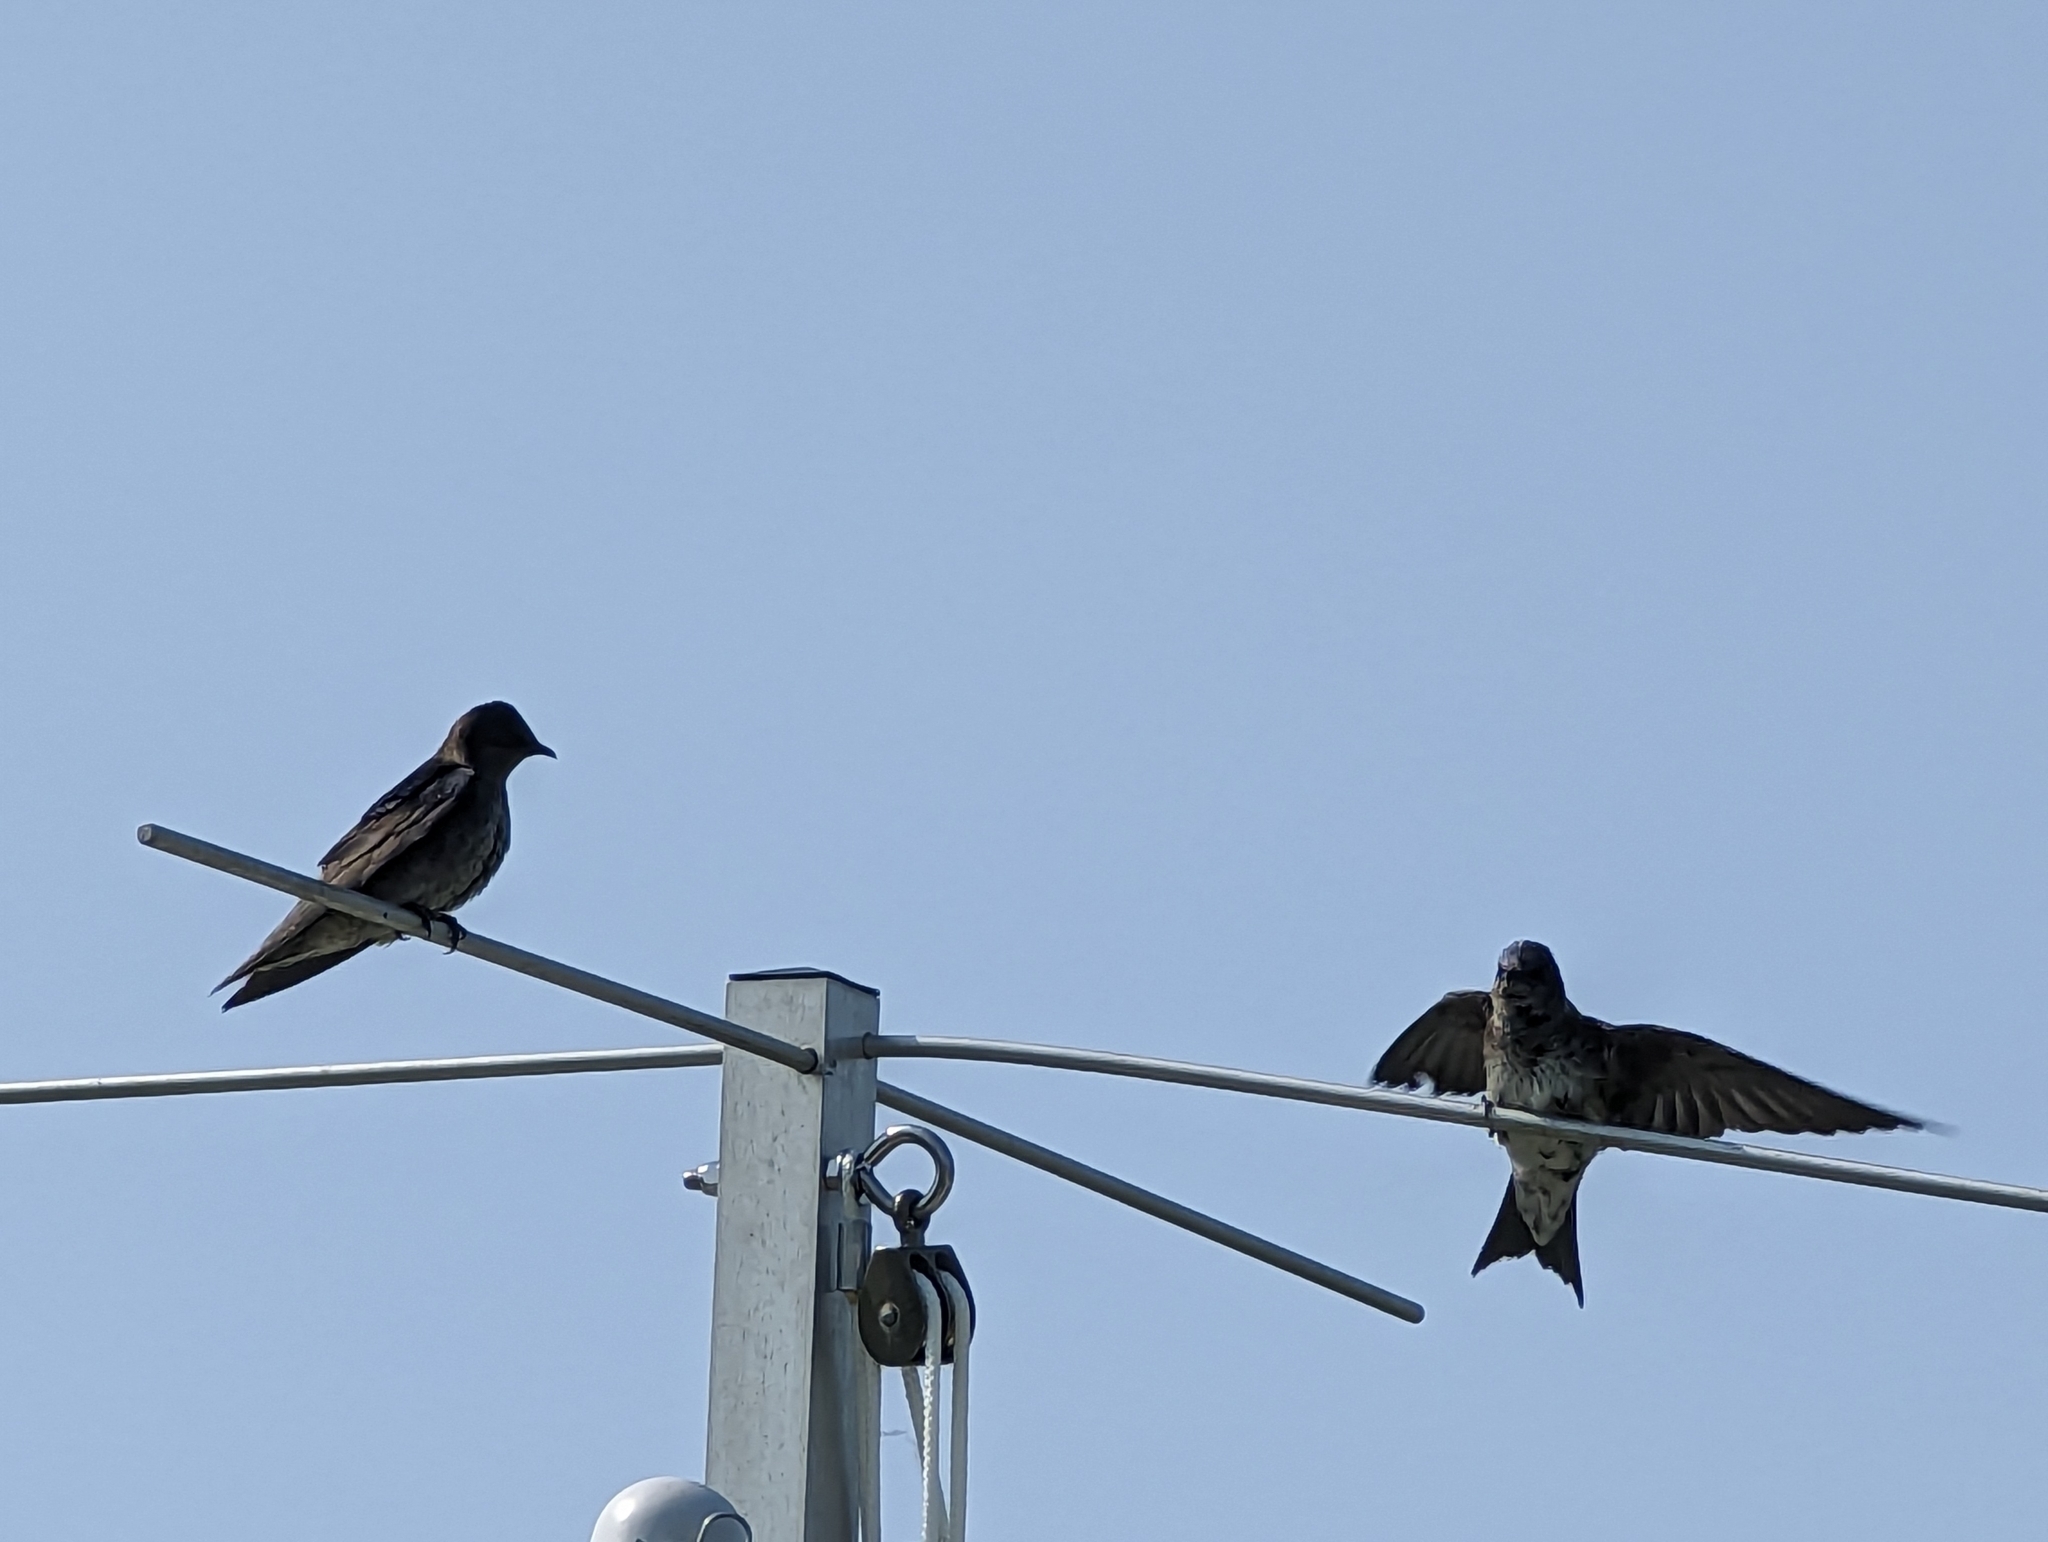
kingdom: Animalia
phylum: Chordata
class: Aves
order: Passeriformes
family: Hirundinidae
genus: Progne
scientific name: Progne subis
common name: Purple martin
